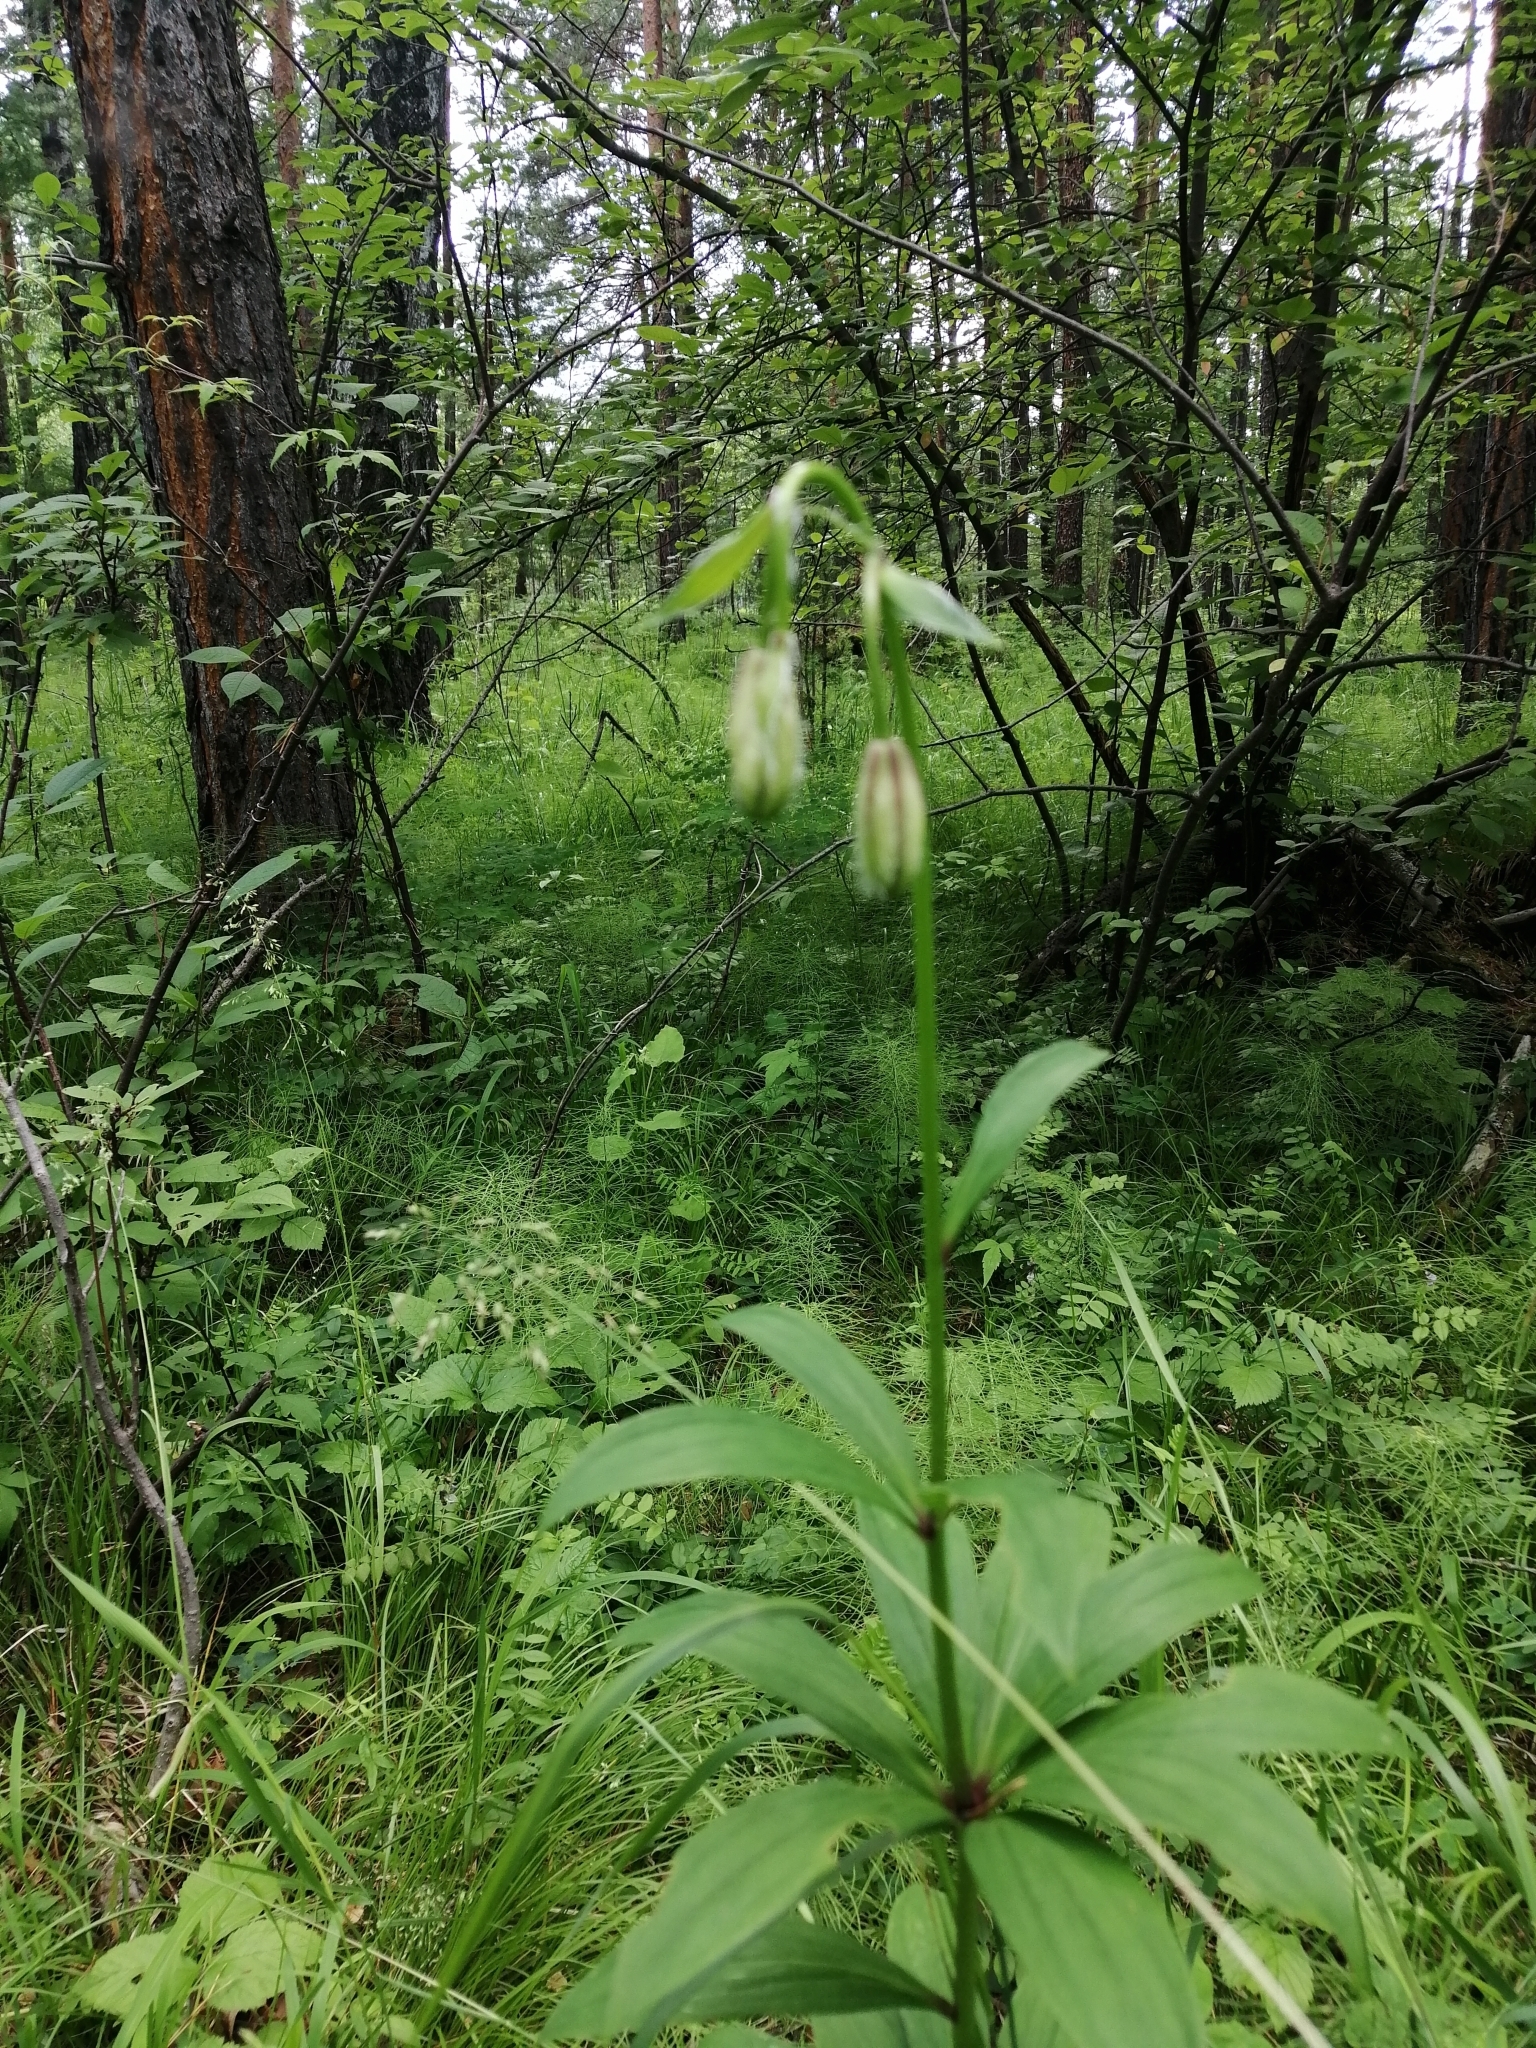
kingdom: Plantae
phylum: Tracheophyta
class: Liliopsida
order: Liliales
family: Liliaceae
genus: Lilium
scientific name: Lilium martagon
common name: Martagon lily
